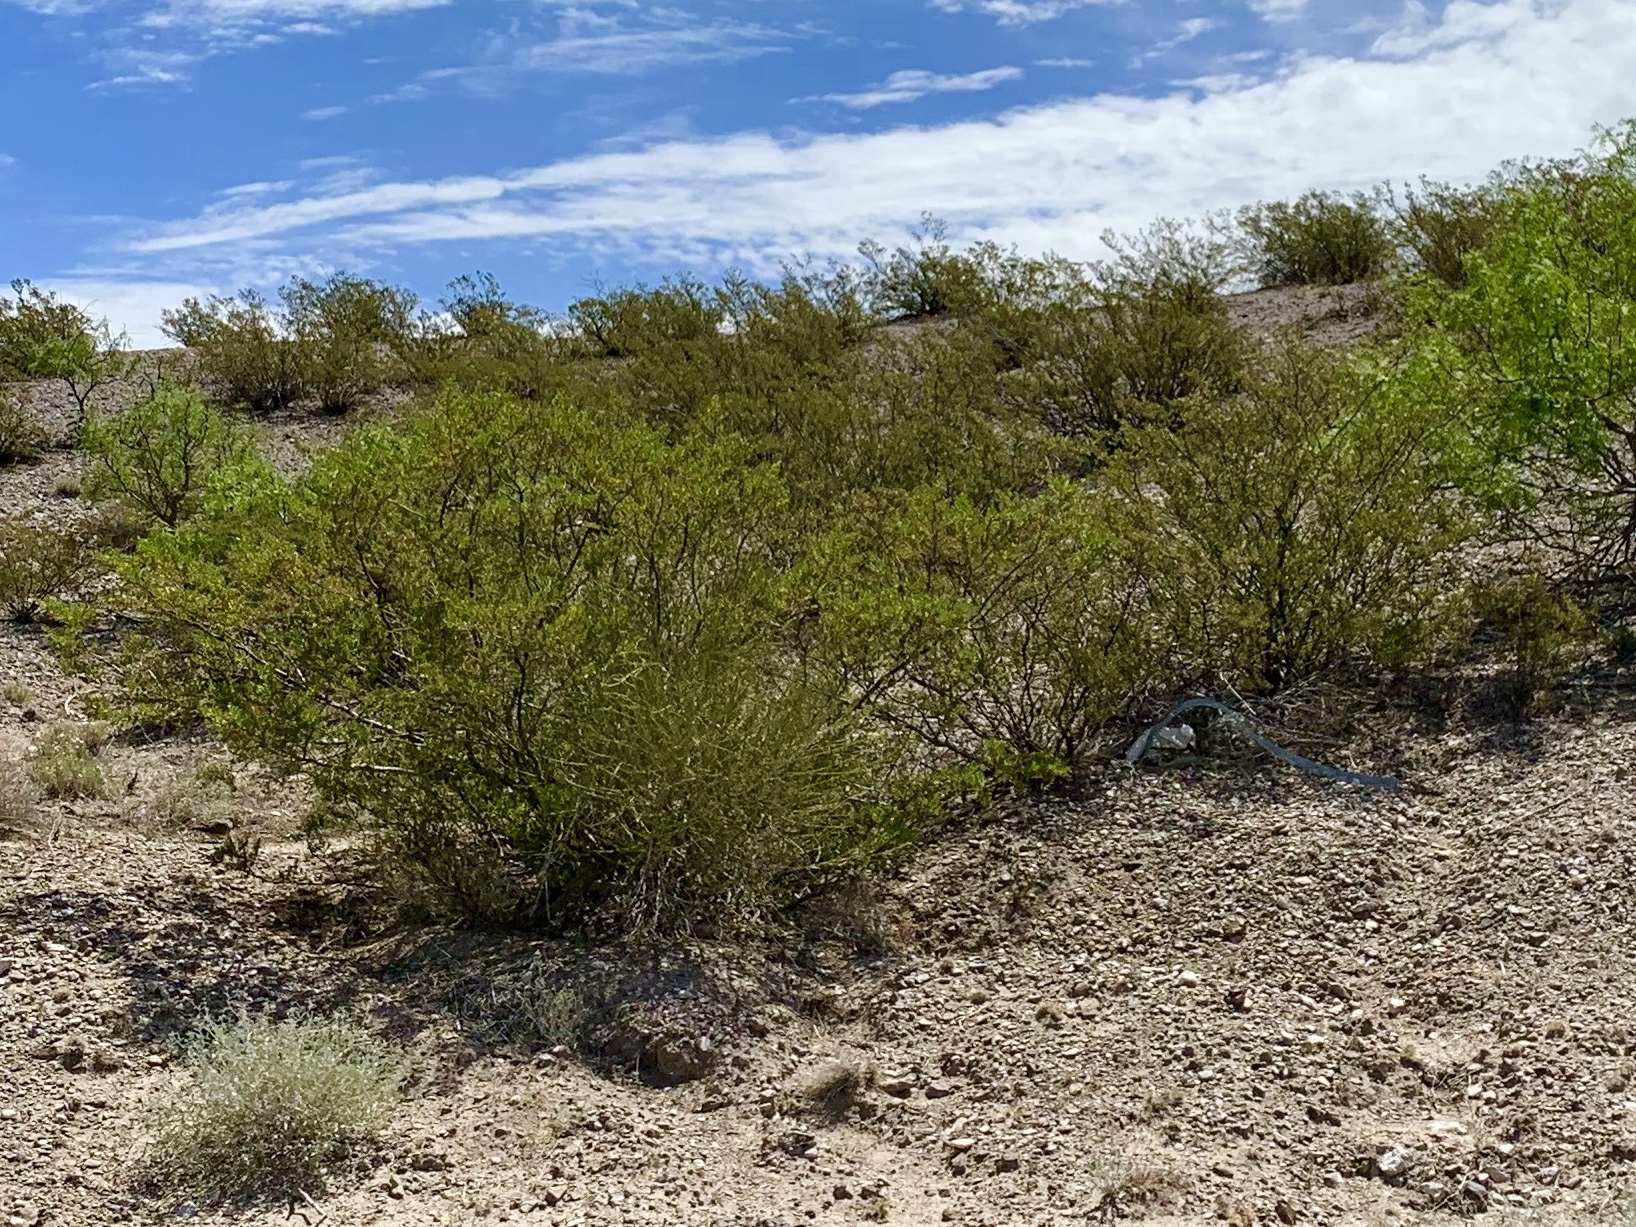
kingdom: Plantae
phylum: Tracheophyta
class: Magnoliopsida
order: Zygophyllales
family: Zygophyllaceae
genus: Larrea
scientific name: Larrea tridentata
